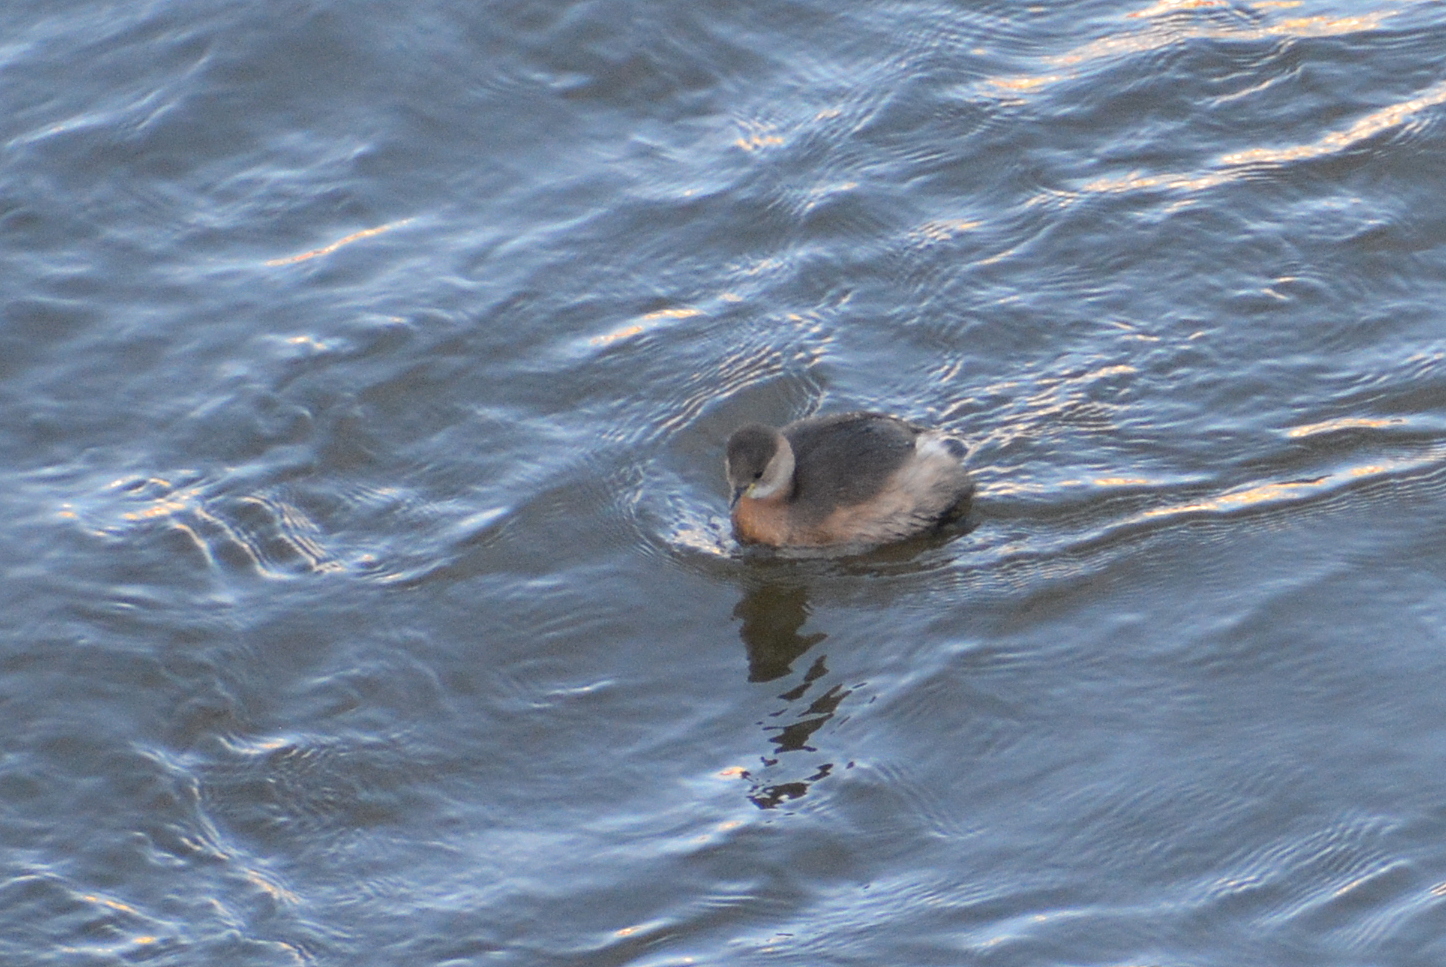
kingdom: Animalia
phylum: Chordata
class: Aves
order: Podicipediformes
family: Podicipedidae
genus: Tachybaptus
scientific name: Tachybaptus ruficollis
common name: Little grebe
